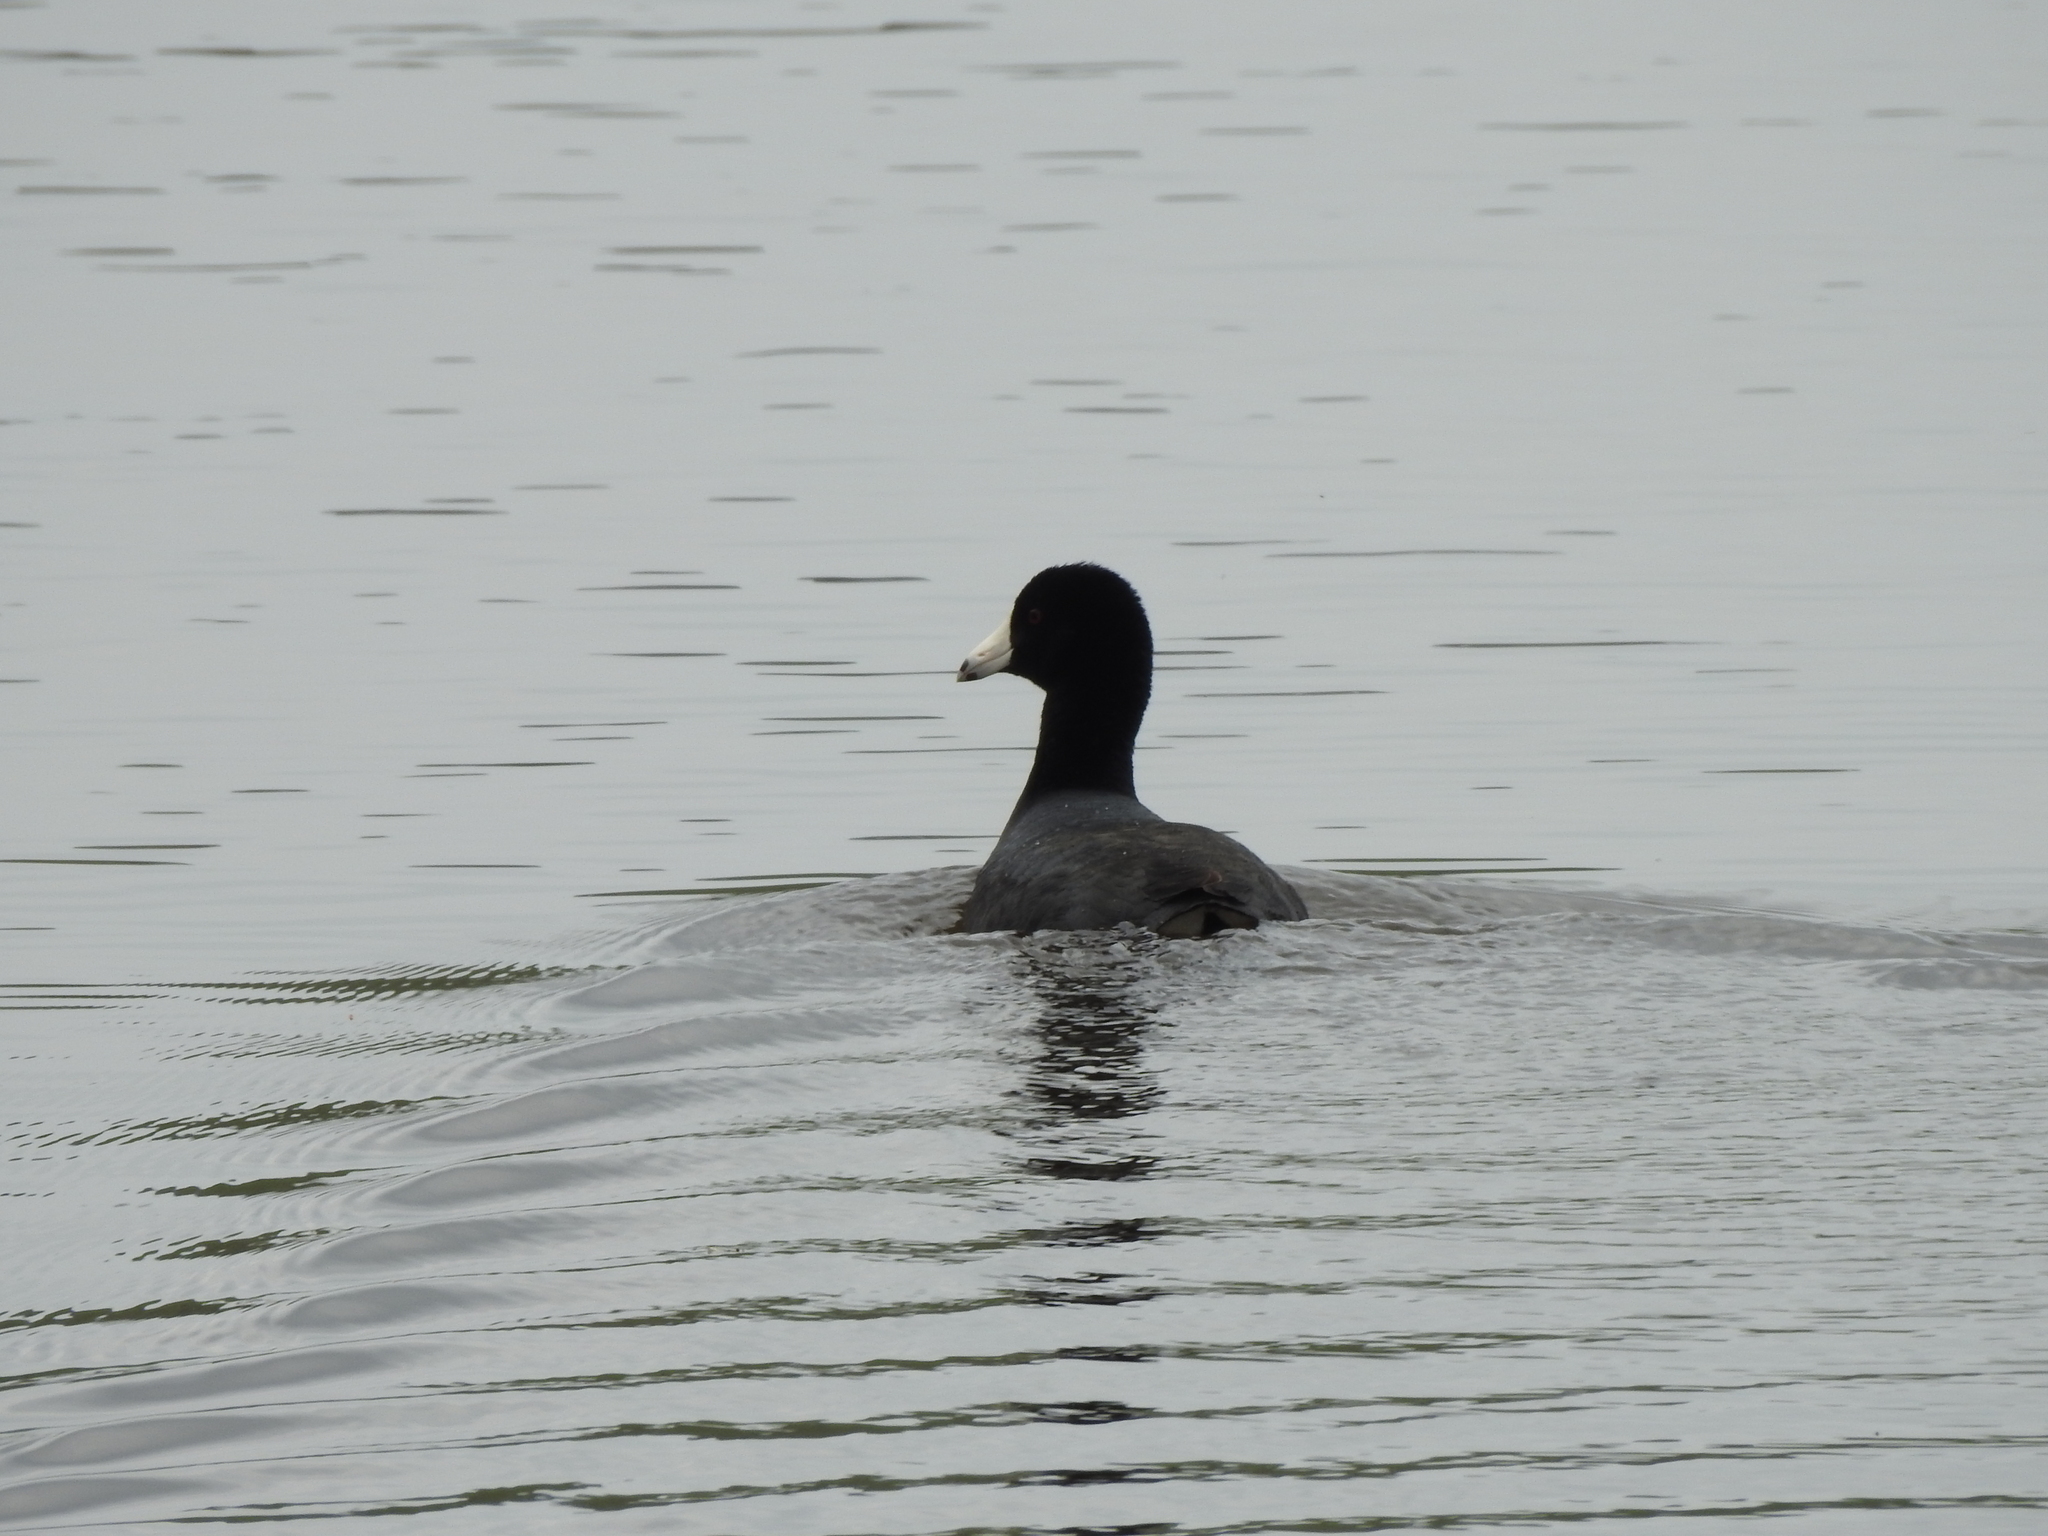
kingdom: Animalia
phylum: Chordata
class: Aves
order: Gruiformes
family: Rallidae
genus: Fulica
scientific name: Fulica americana
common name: American coot
